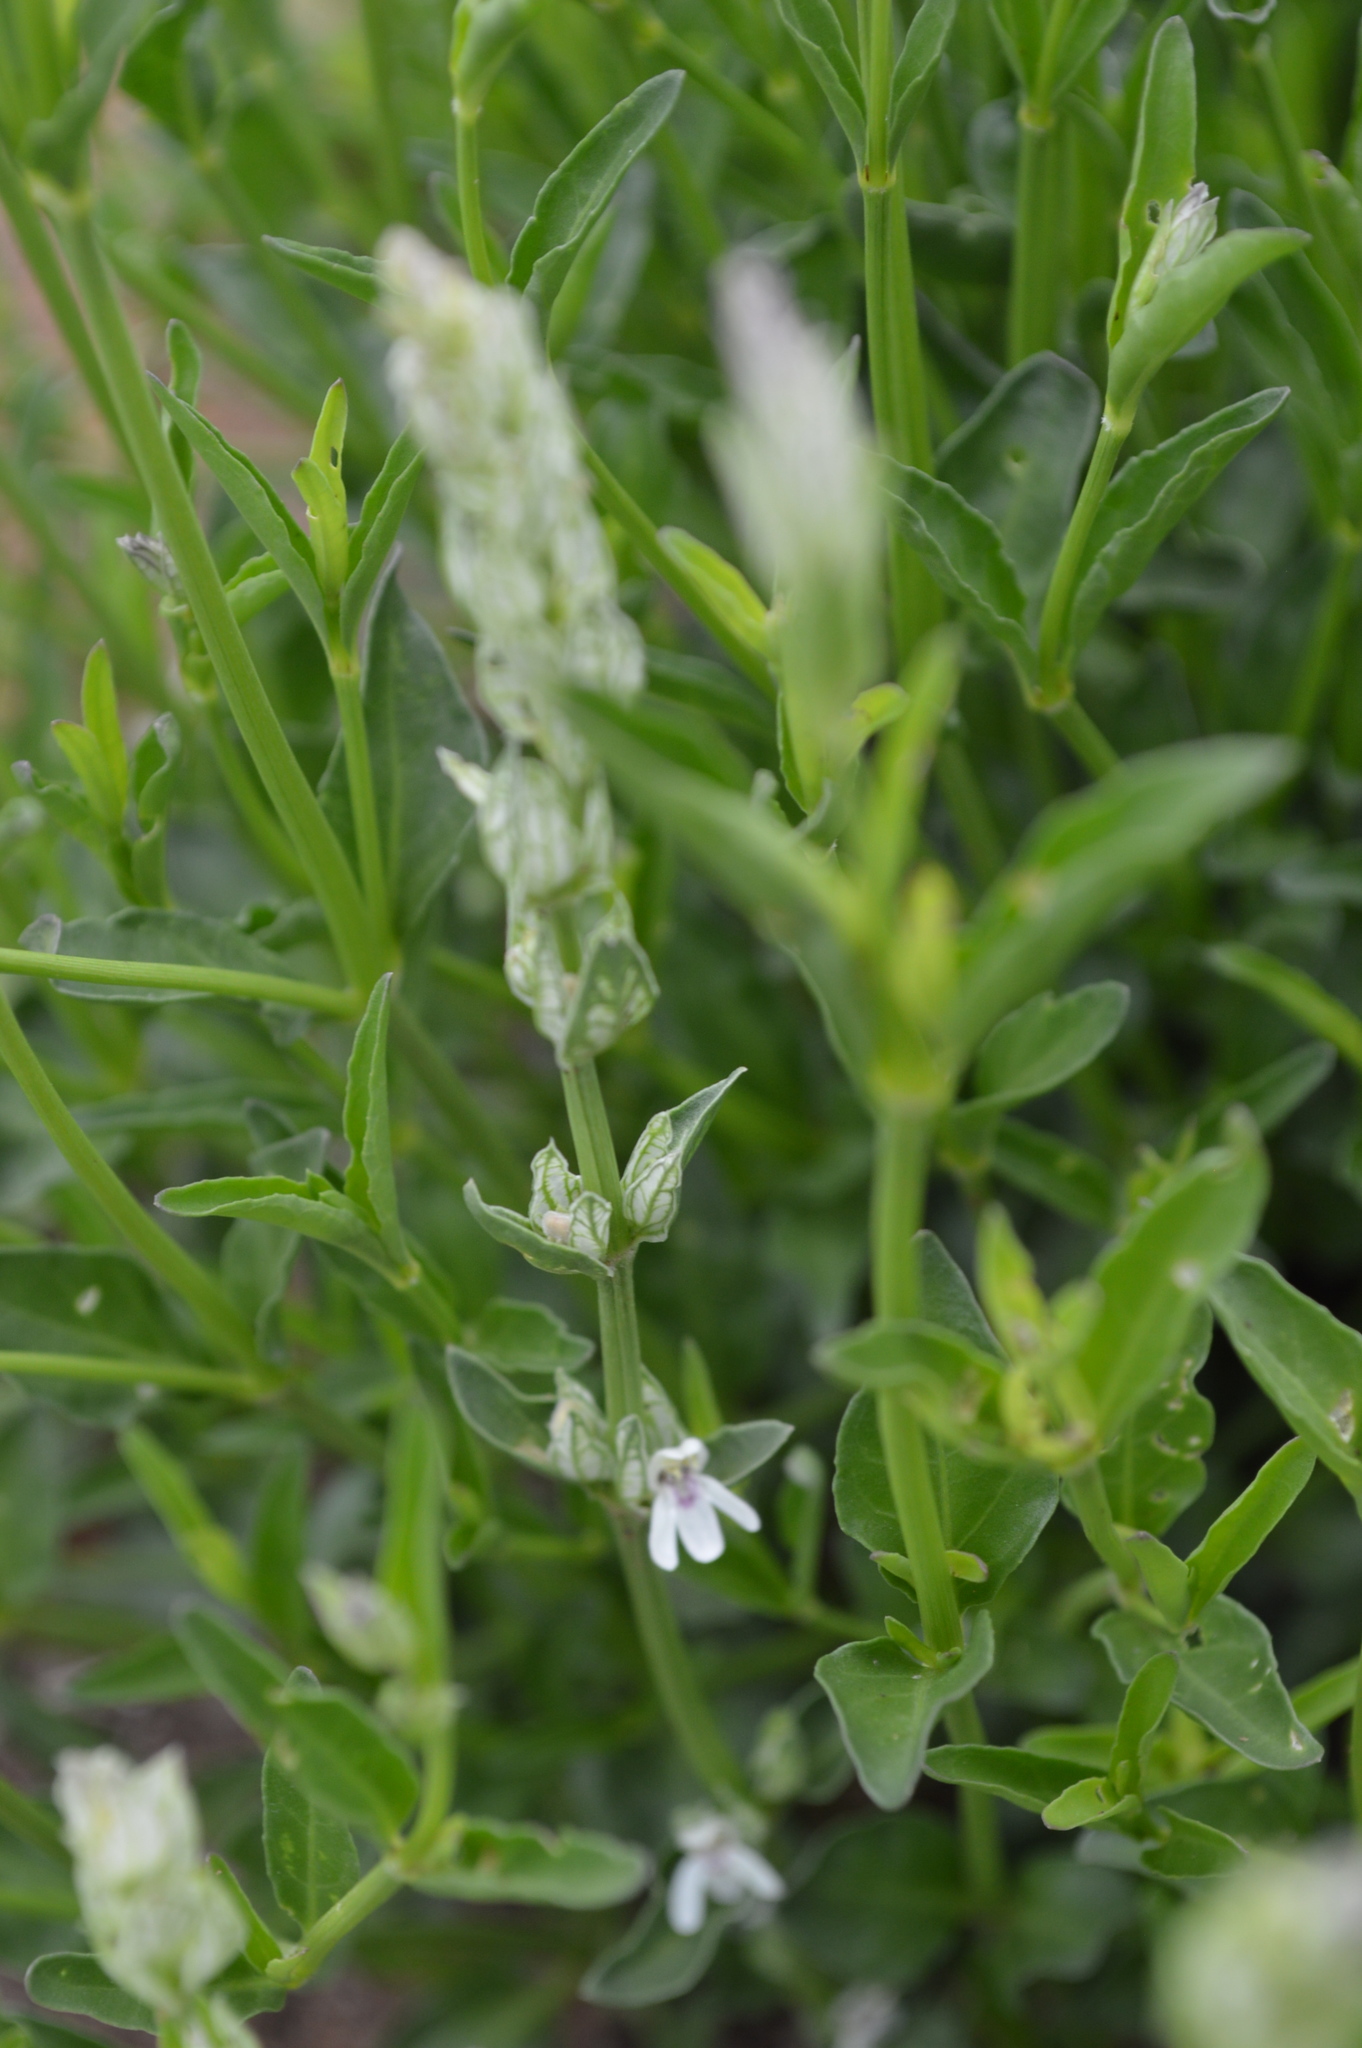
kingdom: Plantae
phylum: Tracheophyta
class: Magnoliopsida
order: Lamiales
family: Acanthaceae
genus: Justicia
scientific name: Justicia betonica
